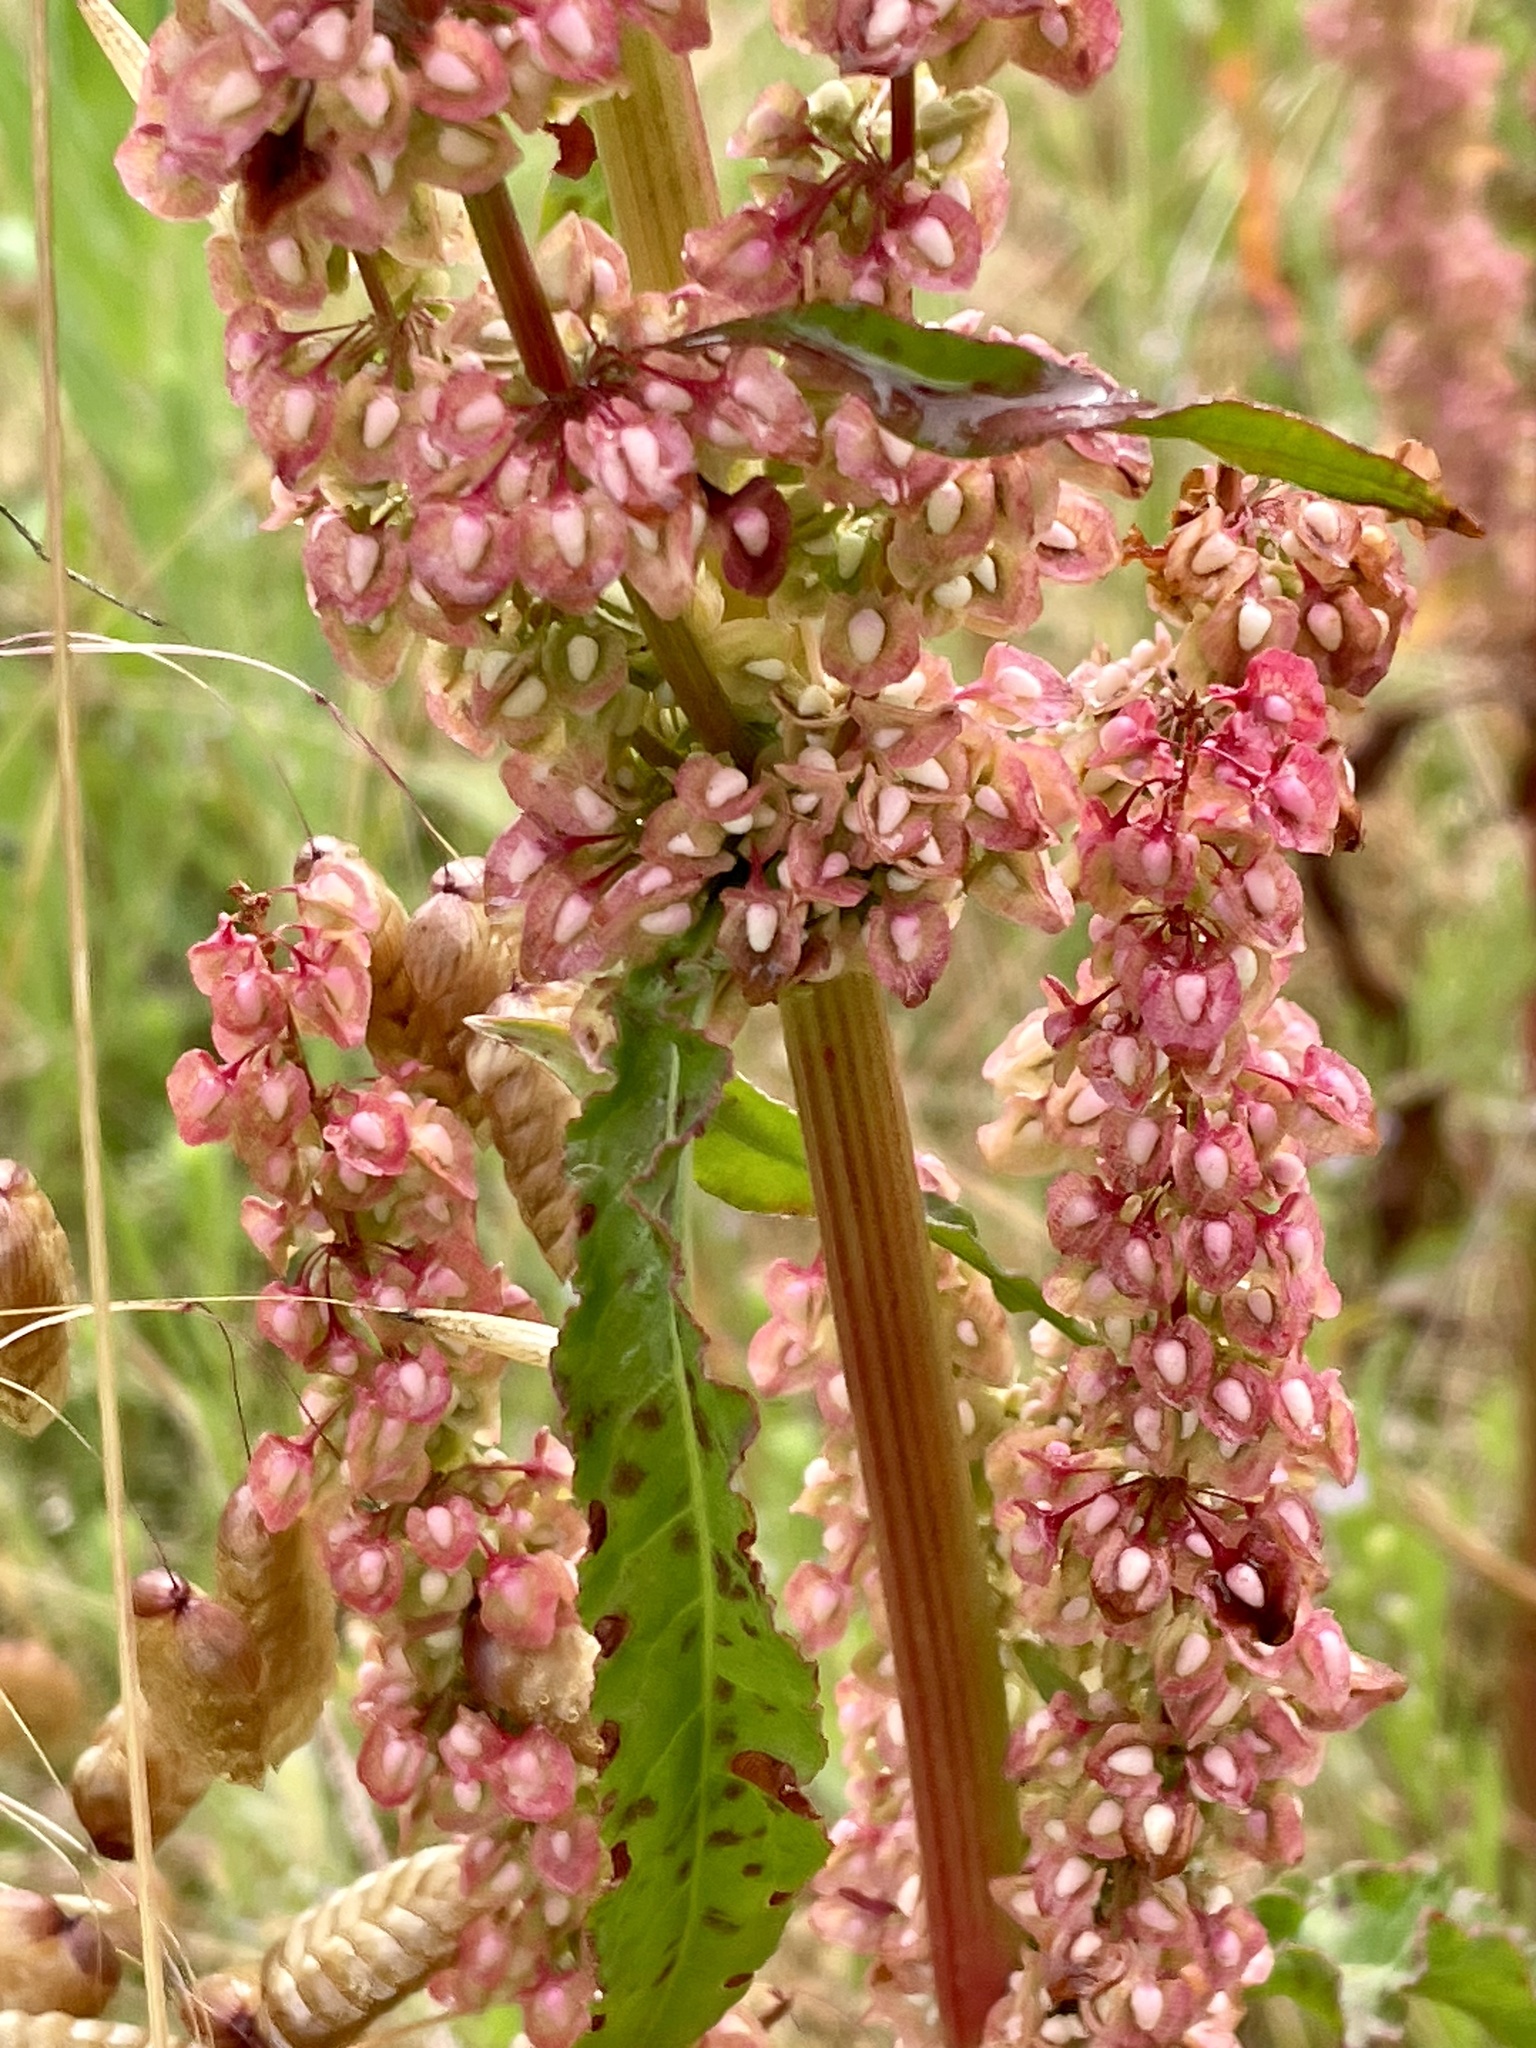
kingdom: Plantae
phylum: Tracheophyta
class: Magnoliopsida
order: Caryophyllales
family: Polygonaceae
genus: Rumex
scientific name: Rumex crispus
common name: Curled dock
